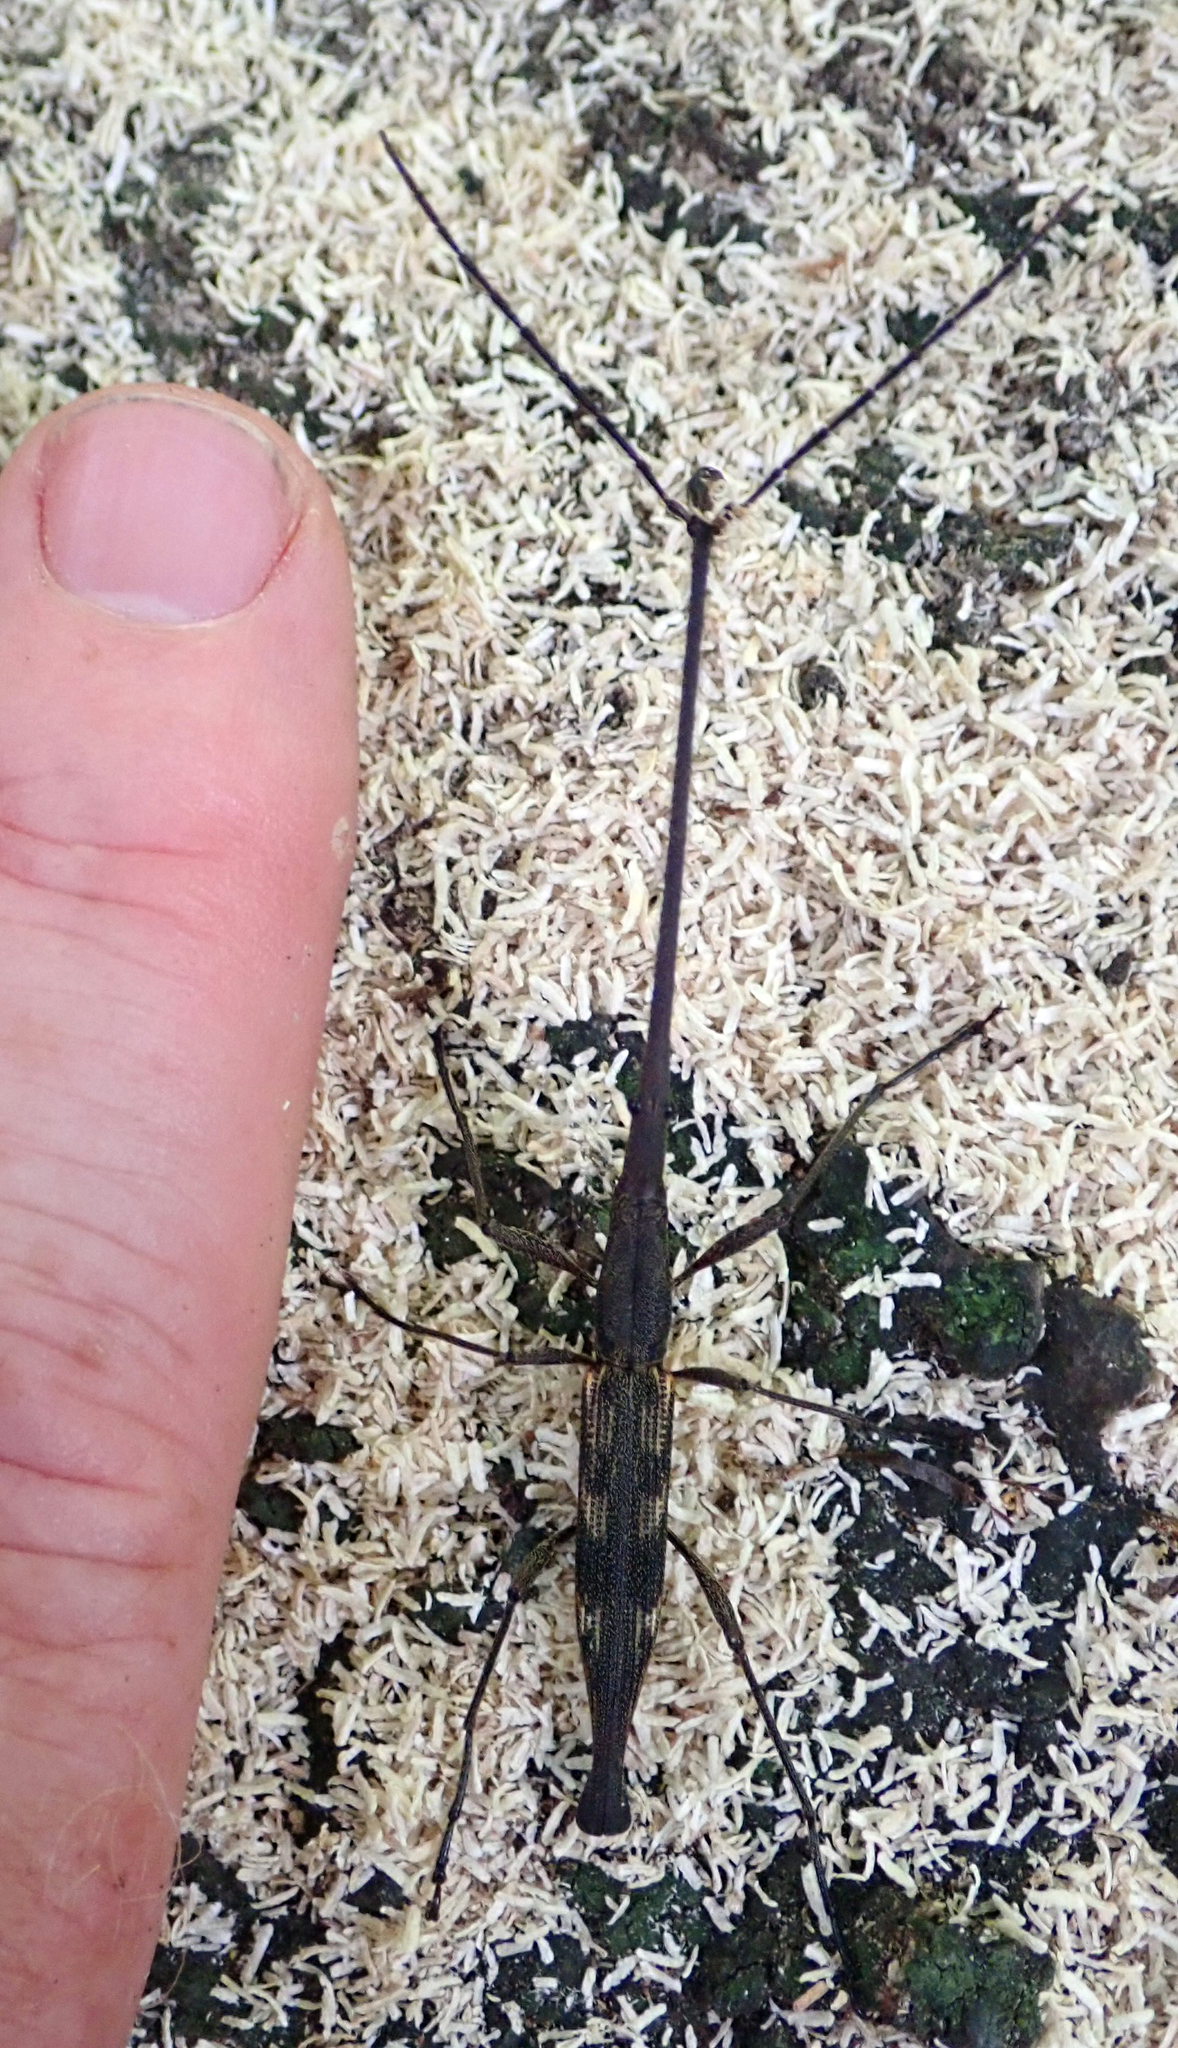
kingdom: Animalia
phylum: Arthropoda
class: Insecta
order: Coleoptera
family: Brentidae
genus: Lasiorhynchus
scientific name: Lasiorhynchus barbicornis
